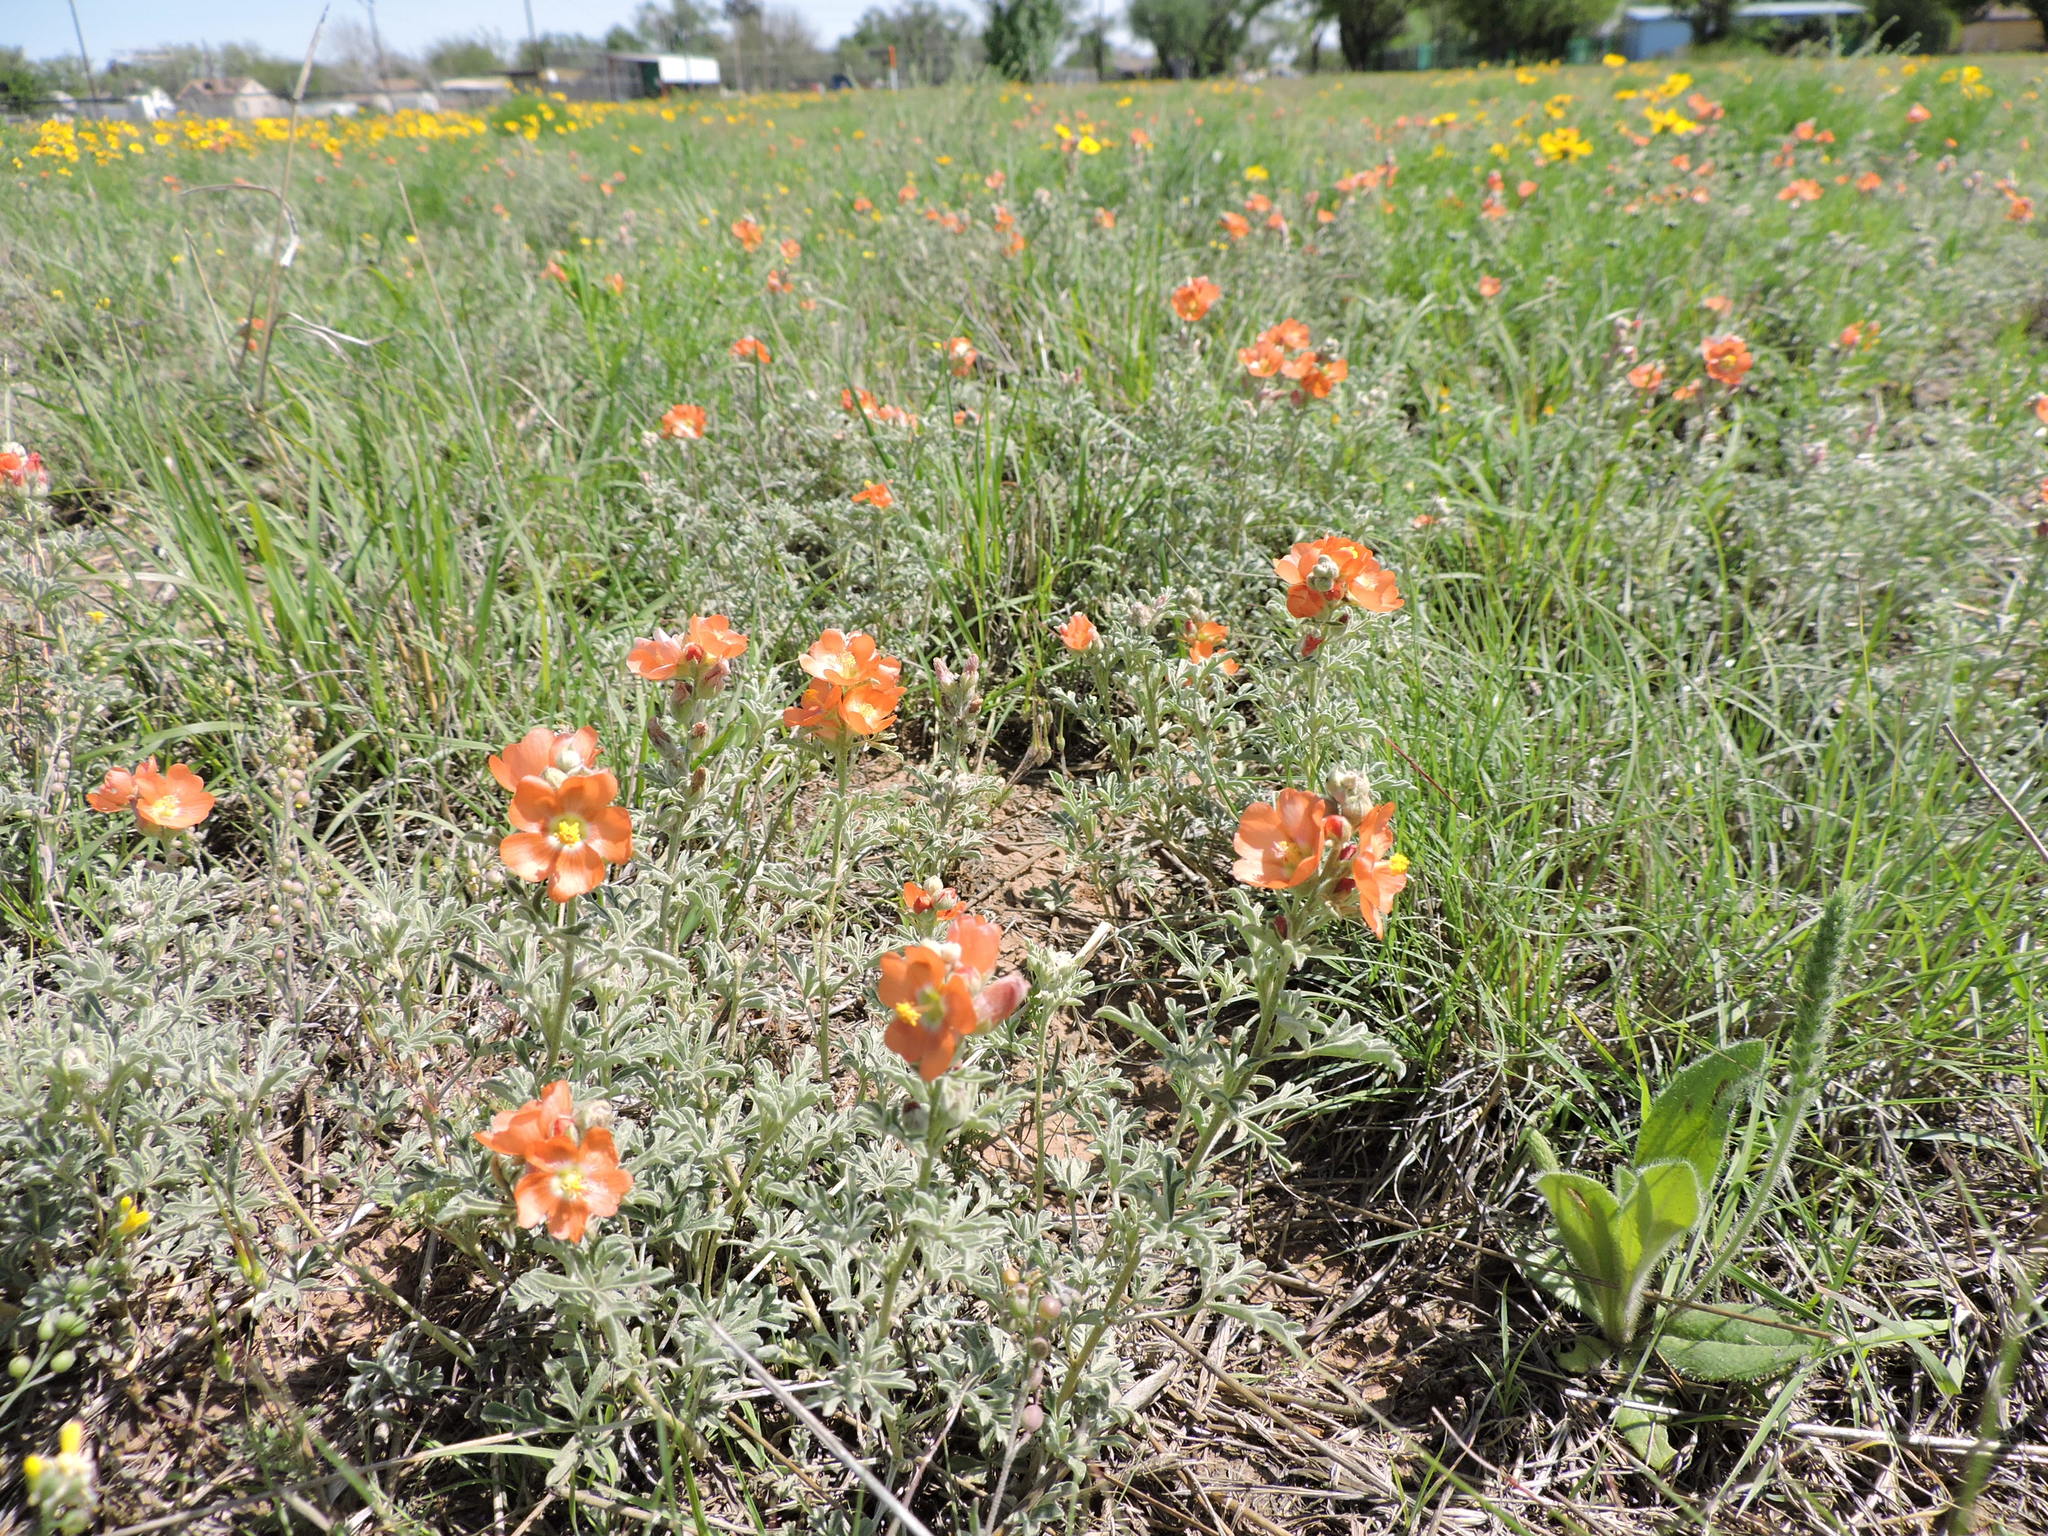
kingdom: Plantae
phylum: Tracheophyta
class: Magnoliopsida
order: Malvales
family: Malvaceae
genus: Sphaeralcea
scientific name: Sphaeralcea coccinea
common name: Moss-rose
